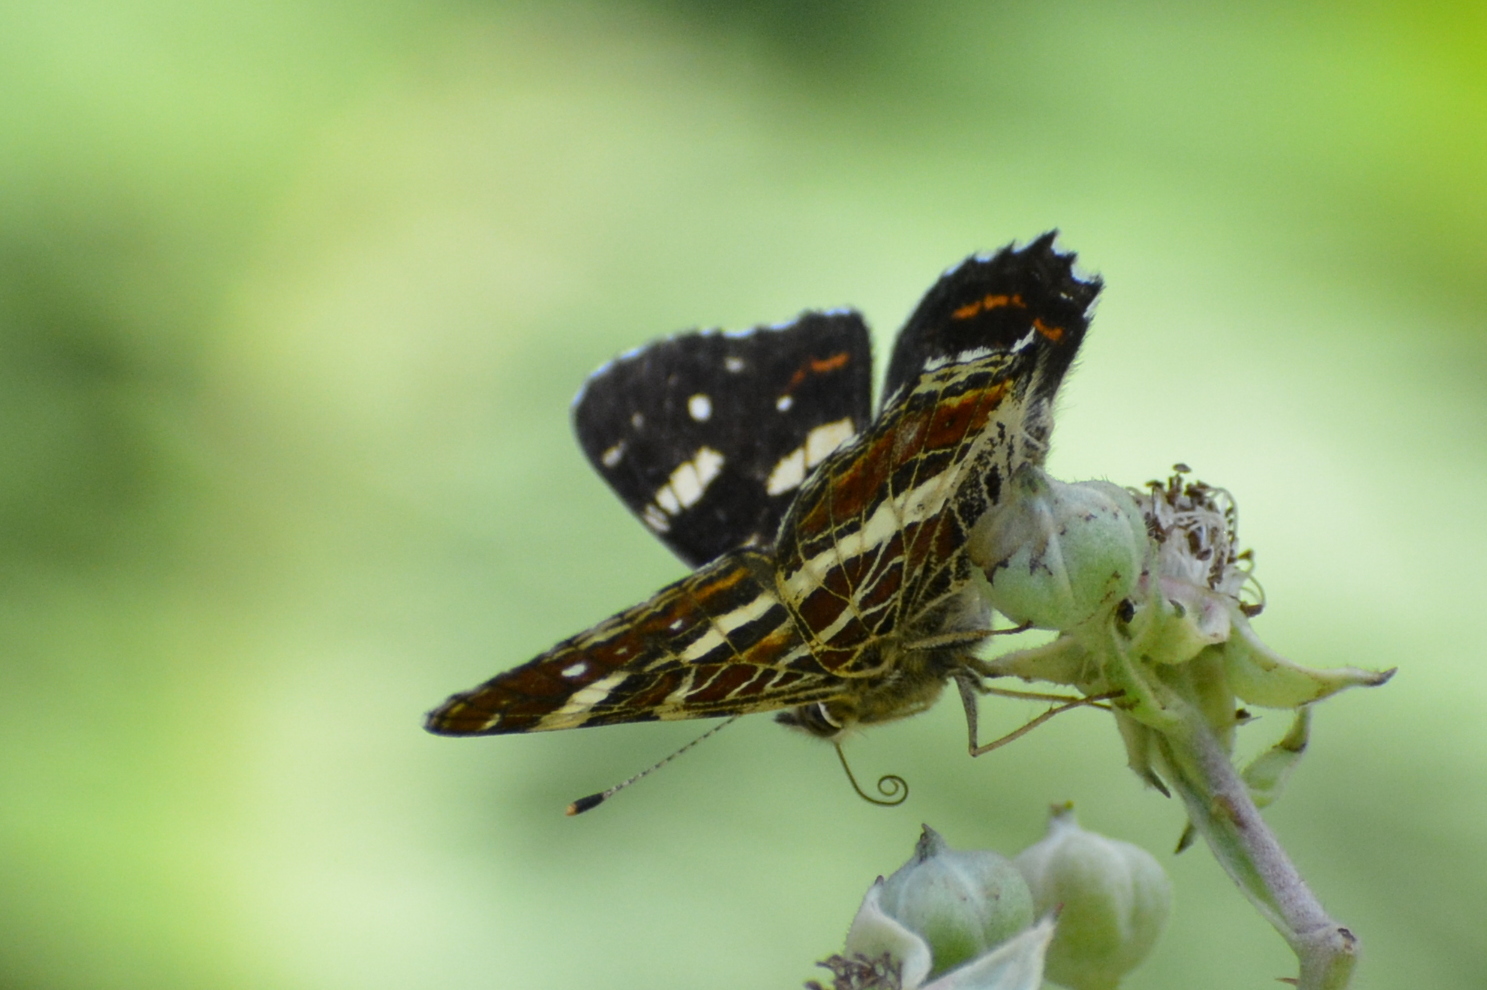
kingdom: Animalia
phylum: Arthropoda
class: Insecta
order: Lepidoptera
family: Nymphalidae
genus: Araschnia
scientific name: Araschnia levana
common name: Map butterfly
